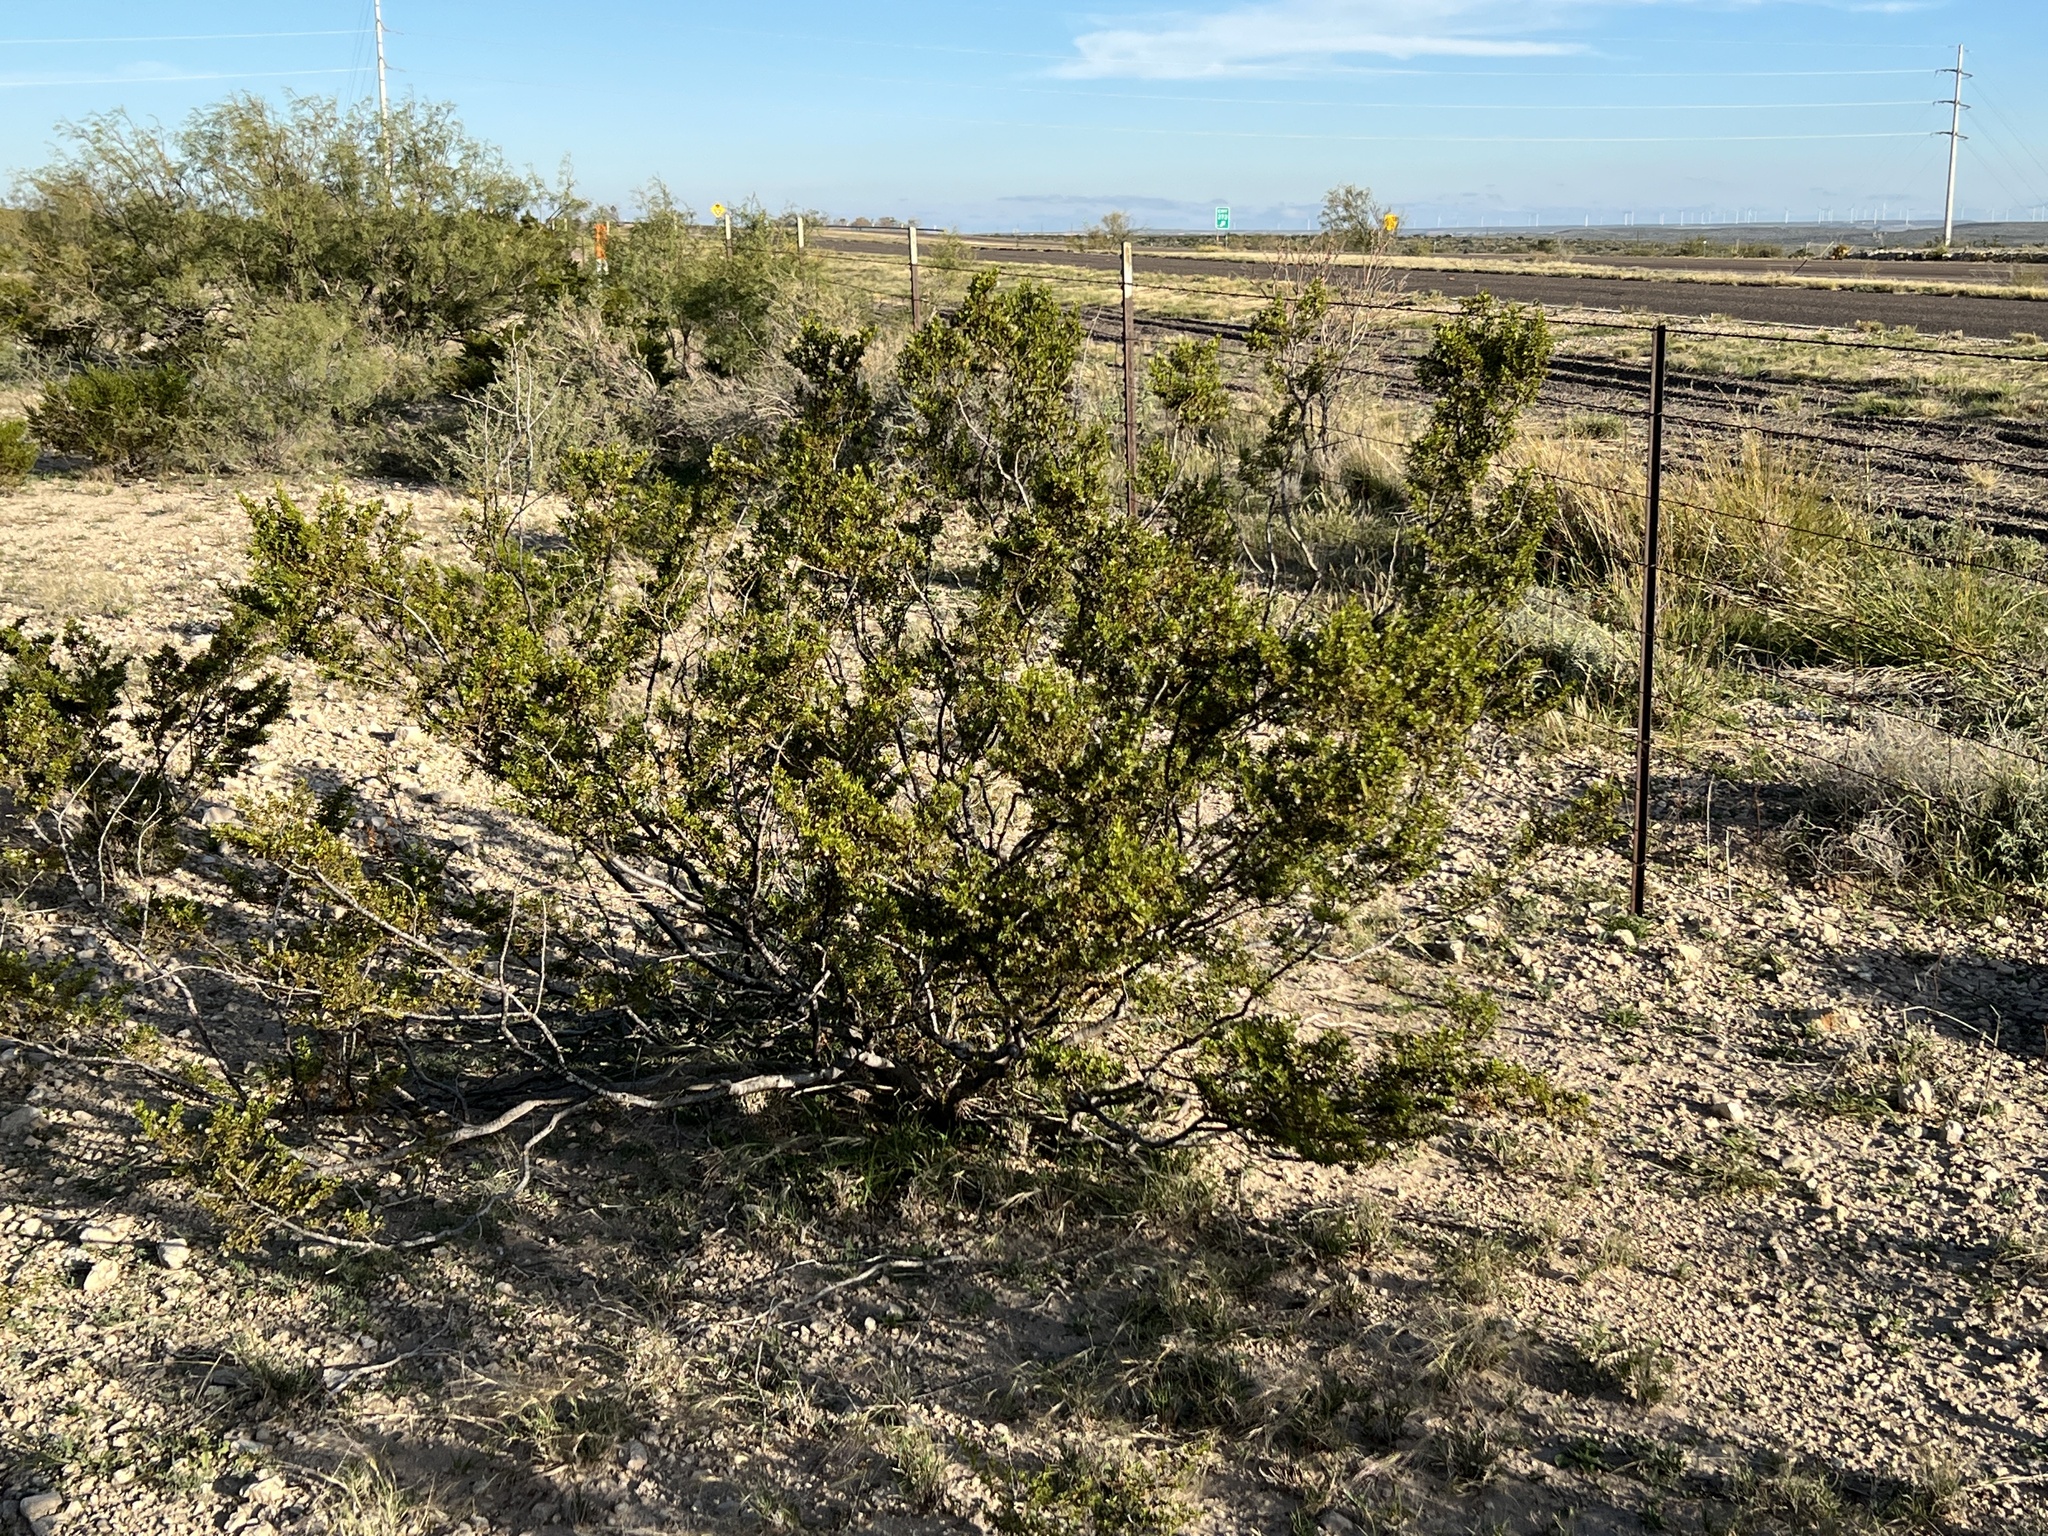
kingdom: Plantae
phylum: Tracheophyta
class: Magnoliopsida
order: Zygophyllales
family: Zygophyllaceae
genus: Larrea
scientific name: Larrea tridentata
